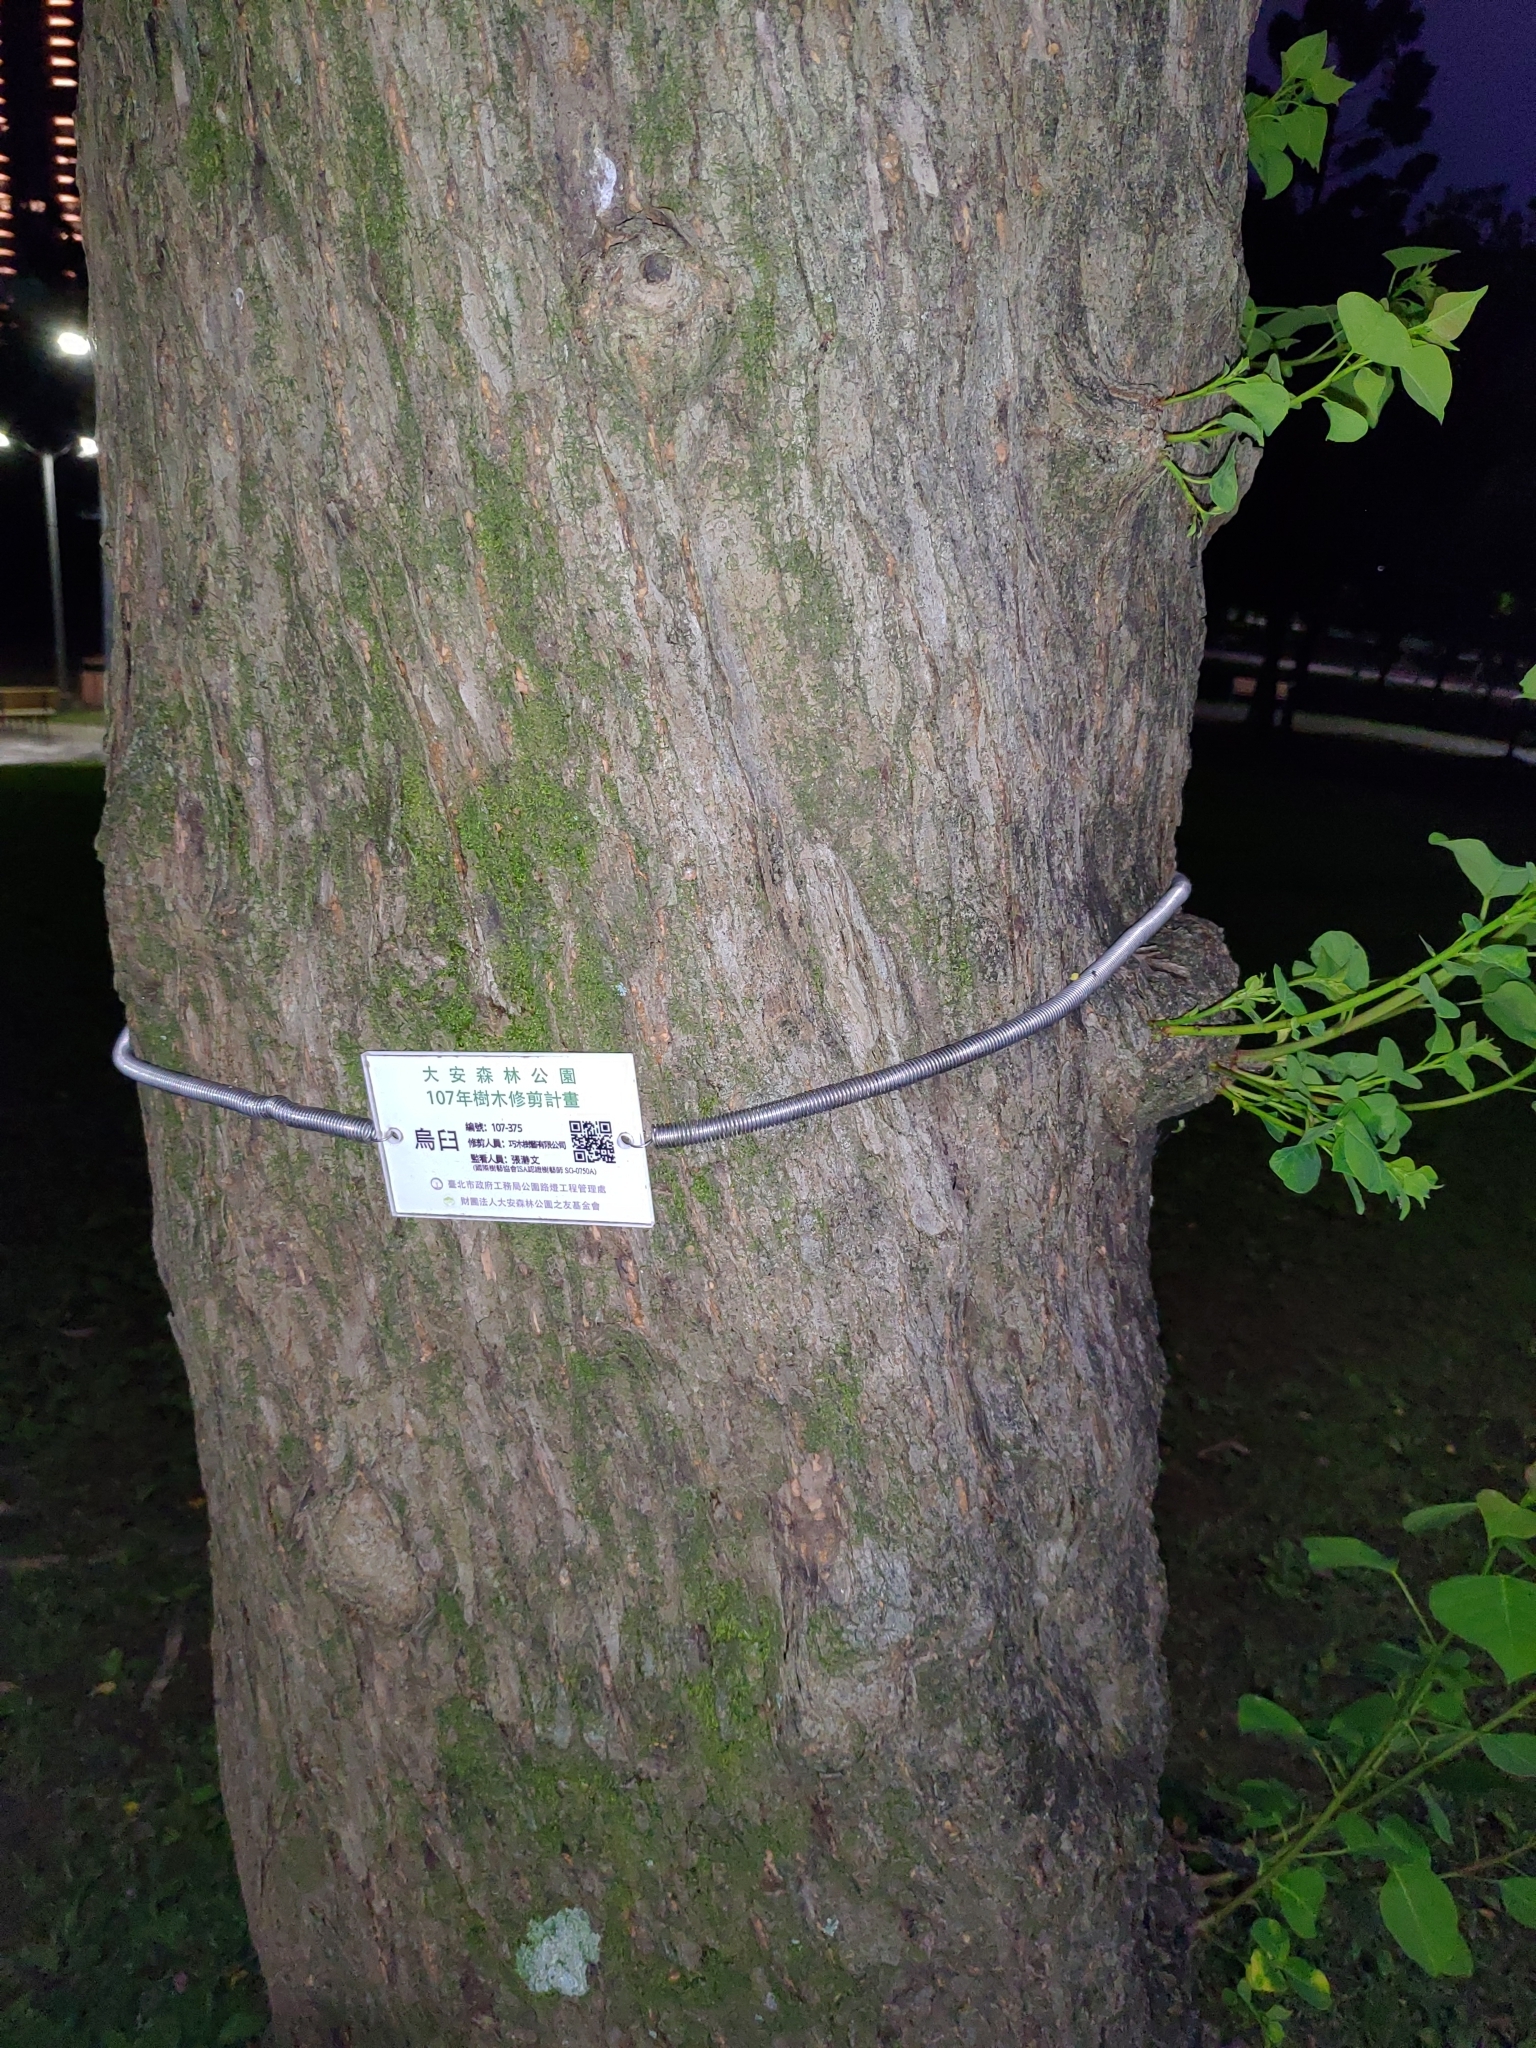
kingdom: Plantae
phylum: Tracheophyta
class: Magnoliopsida
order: Malpighiales
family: Euphorbiaceae
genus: Triadica
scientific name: Triadica sebifera
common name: Chinese tallow
